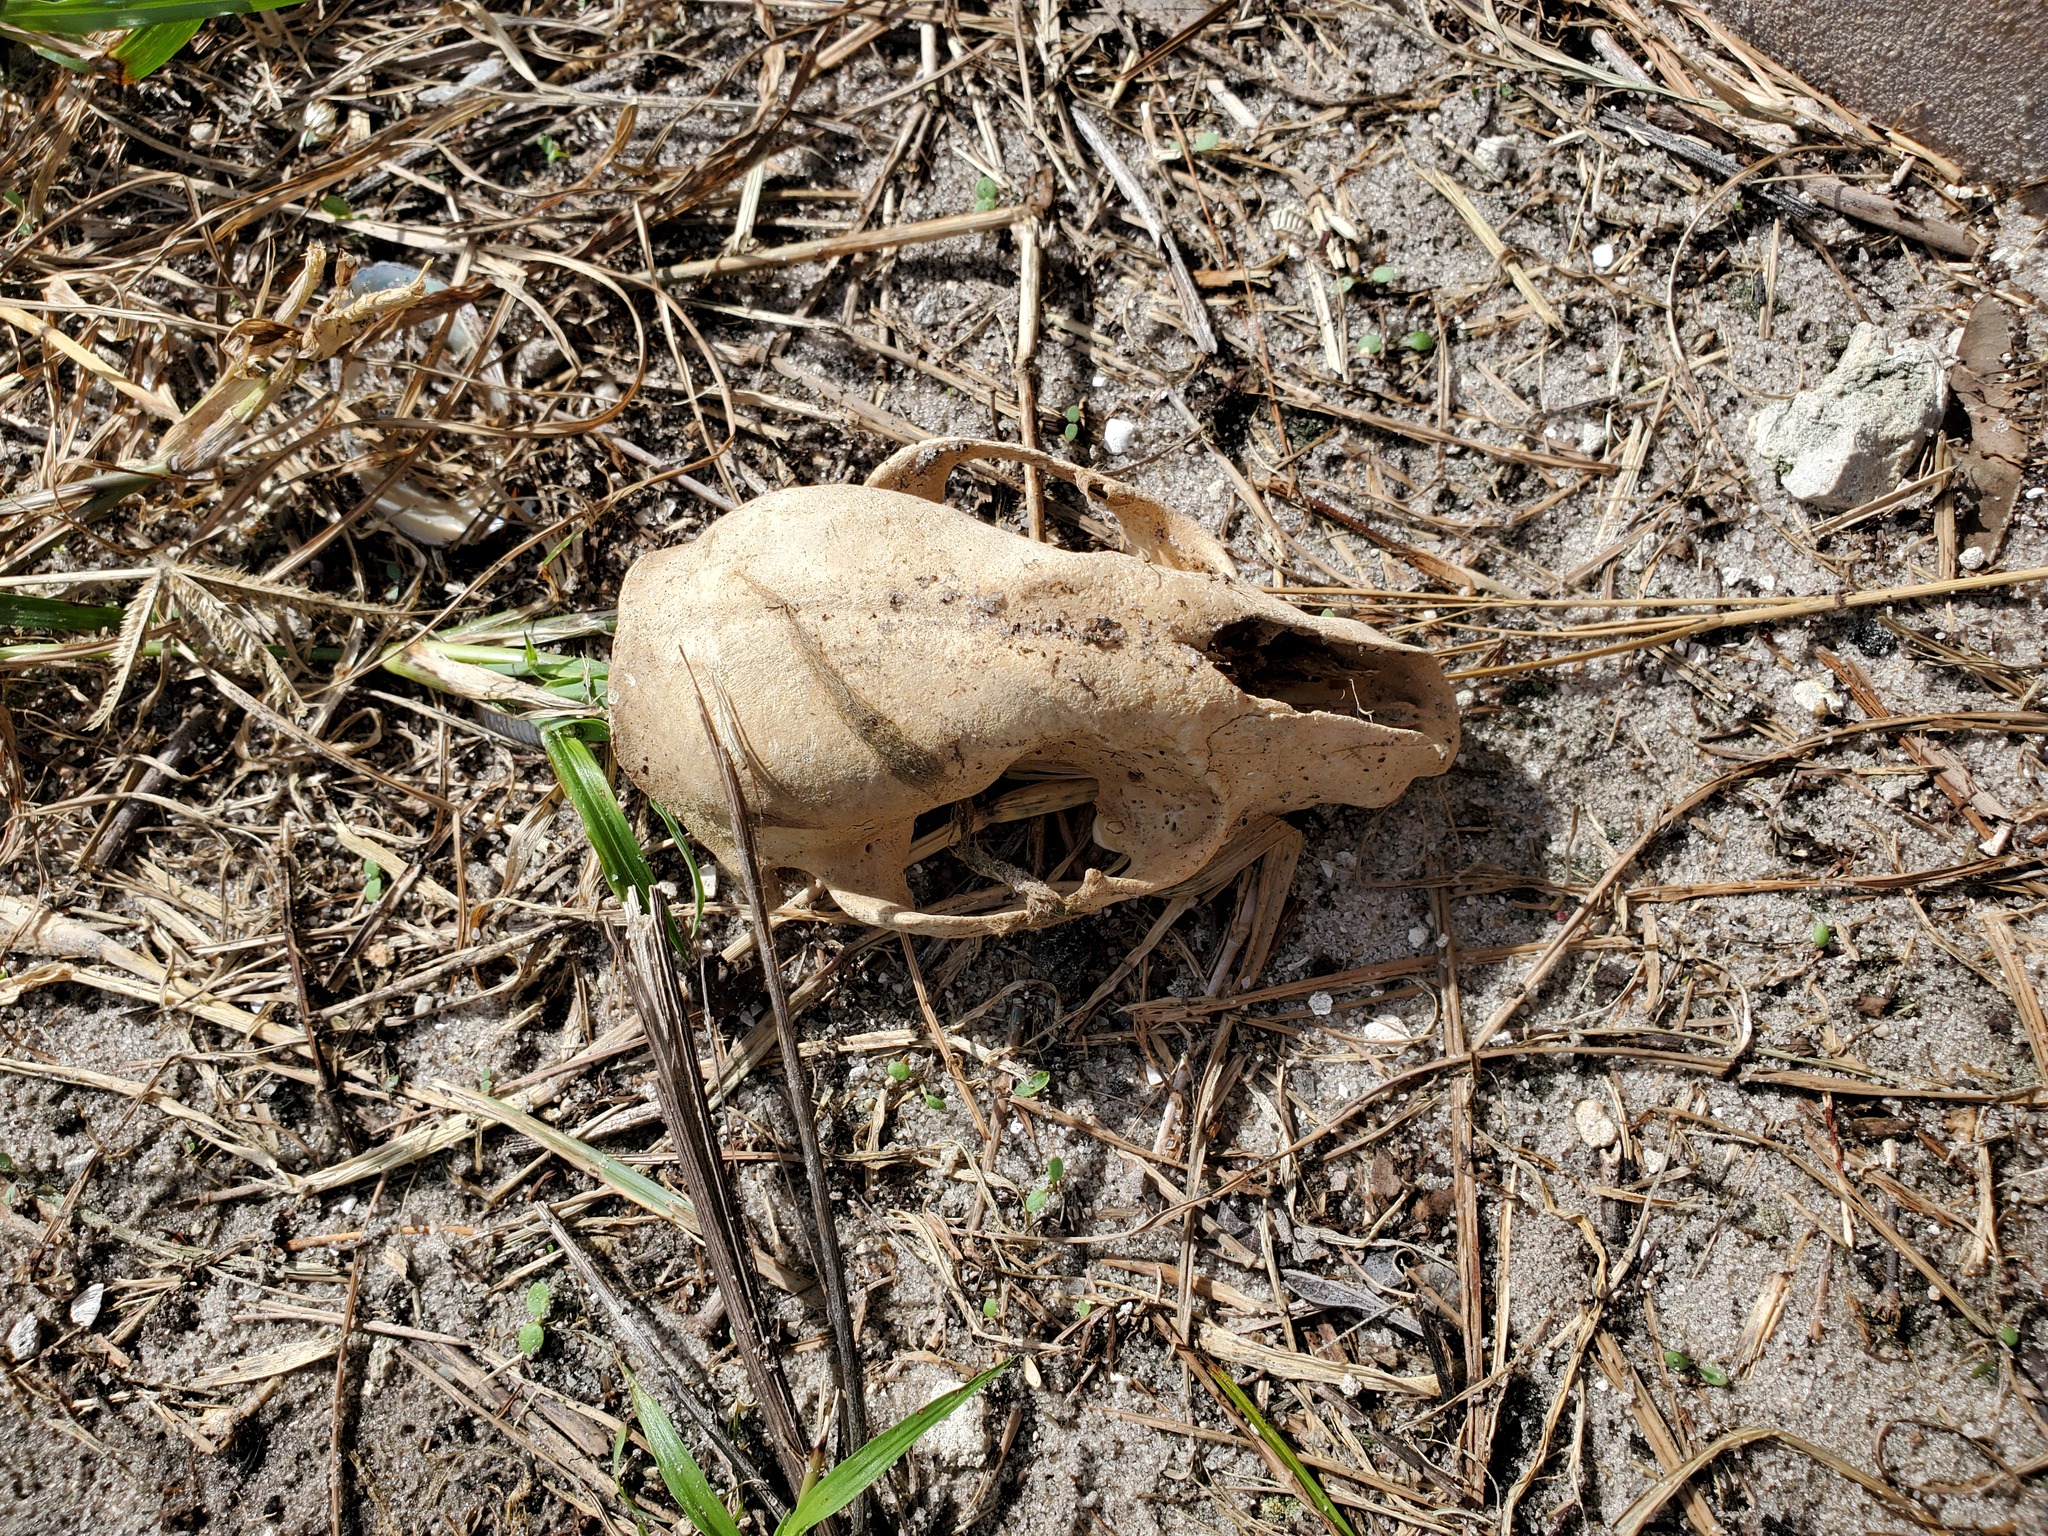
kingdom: Animalia
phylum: Chordata
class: Mammalia
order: Carnivora
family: Procyonidae
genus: Procyon
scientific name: Procyon lotor
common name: Raccoon
